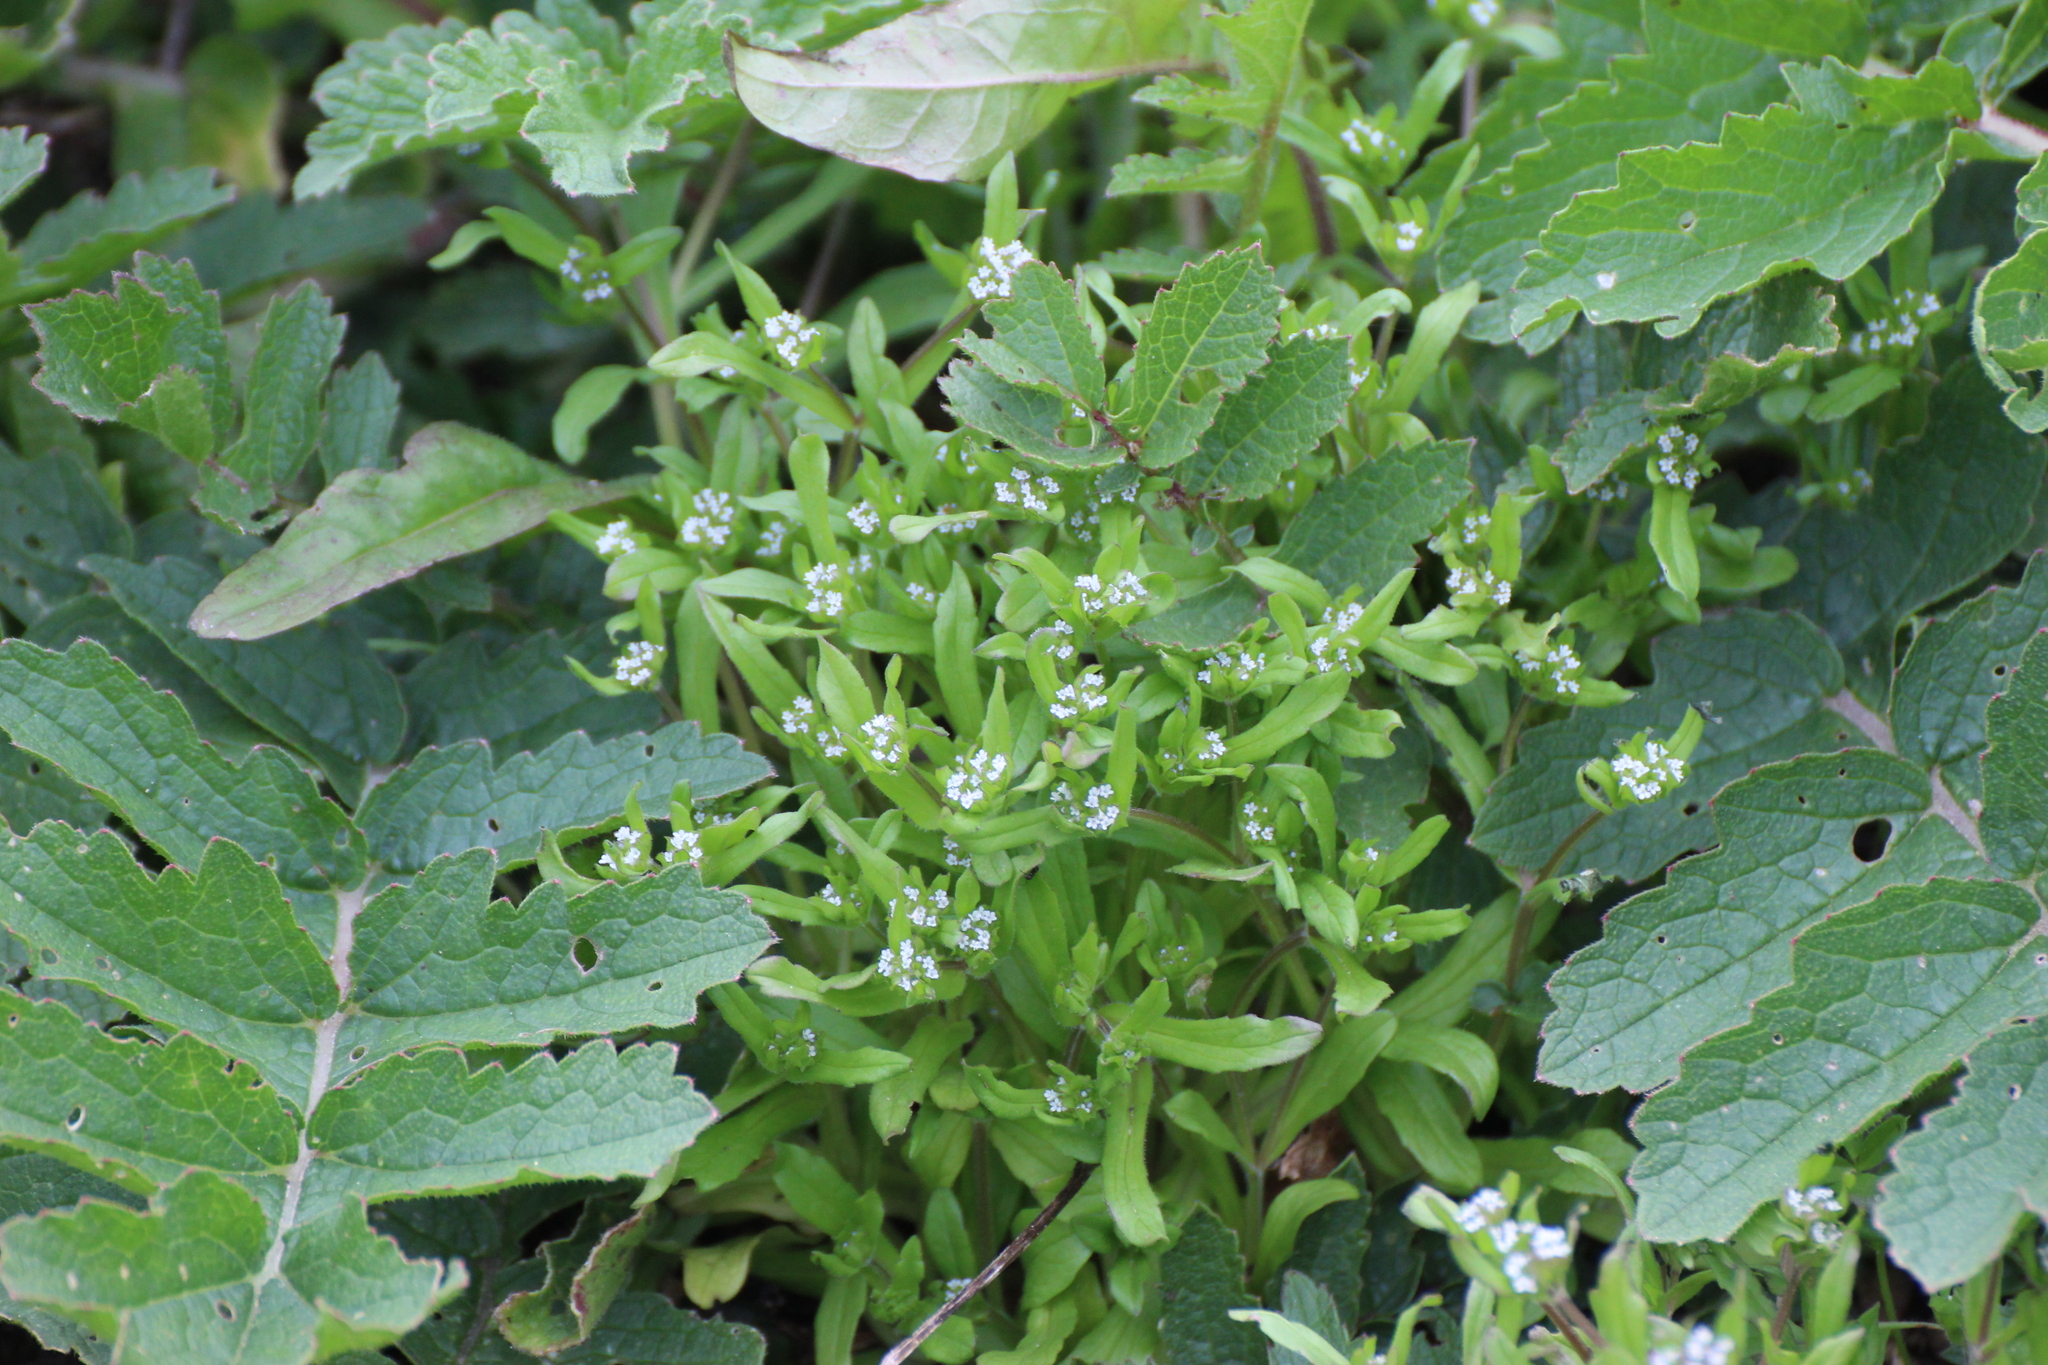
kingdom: Plantae
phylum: Tracheophyta
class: Magnoliopsida
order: Dipsacales
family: Caprifoliaceae
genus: Valerianella
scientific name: Valerianella locusta
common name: Common cornsalad
